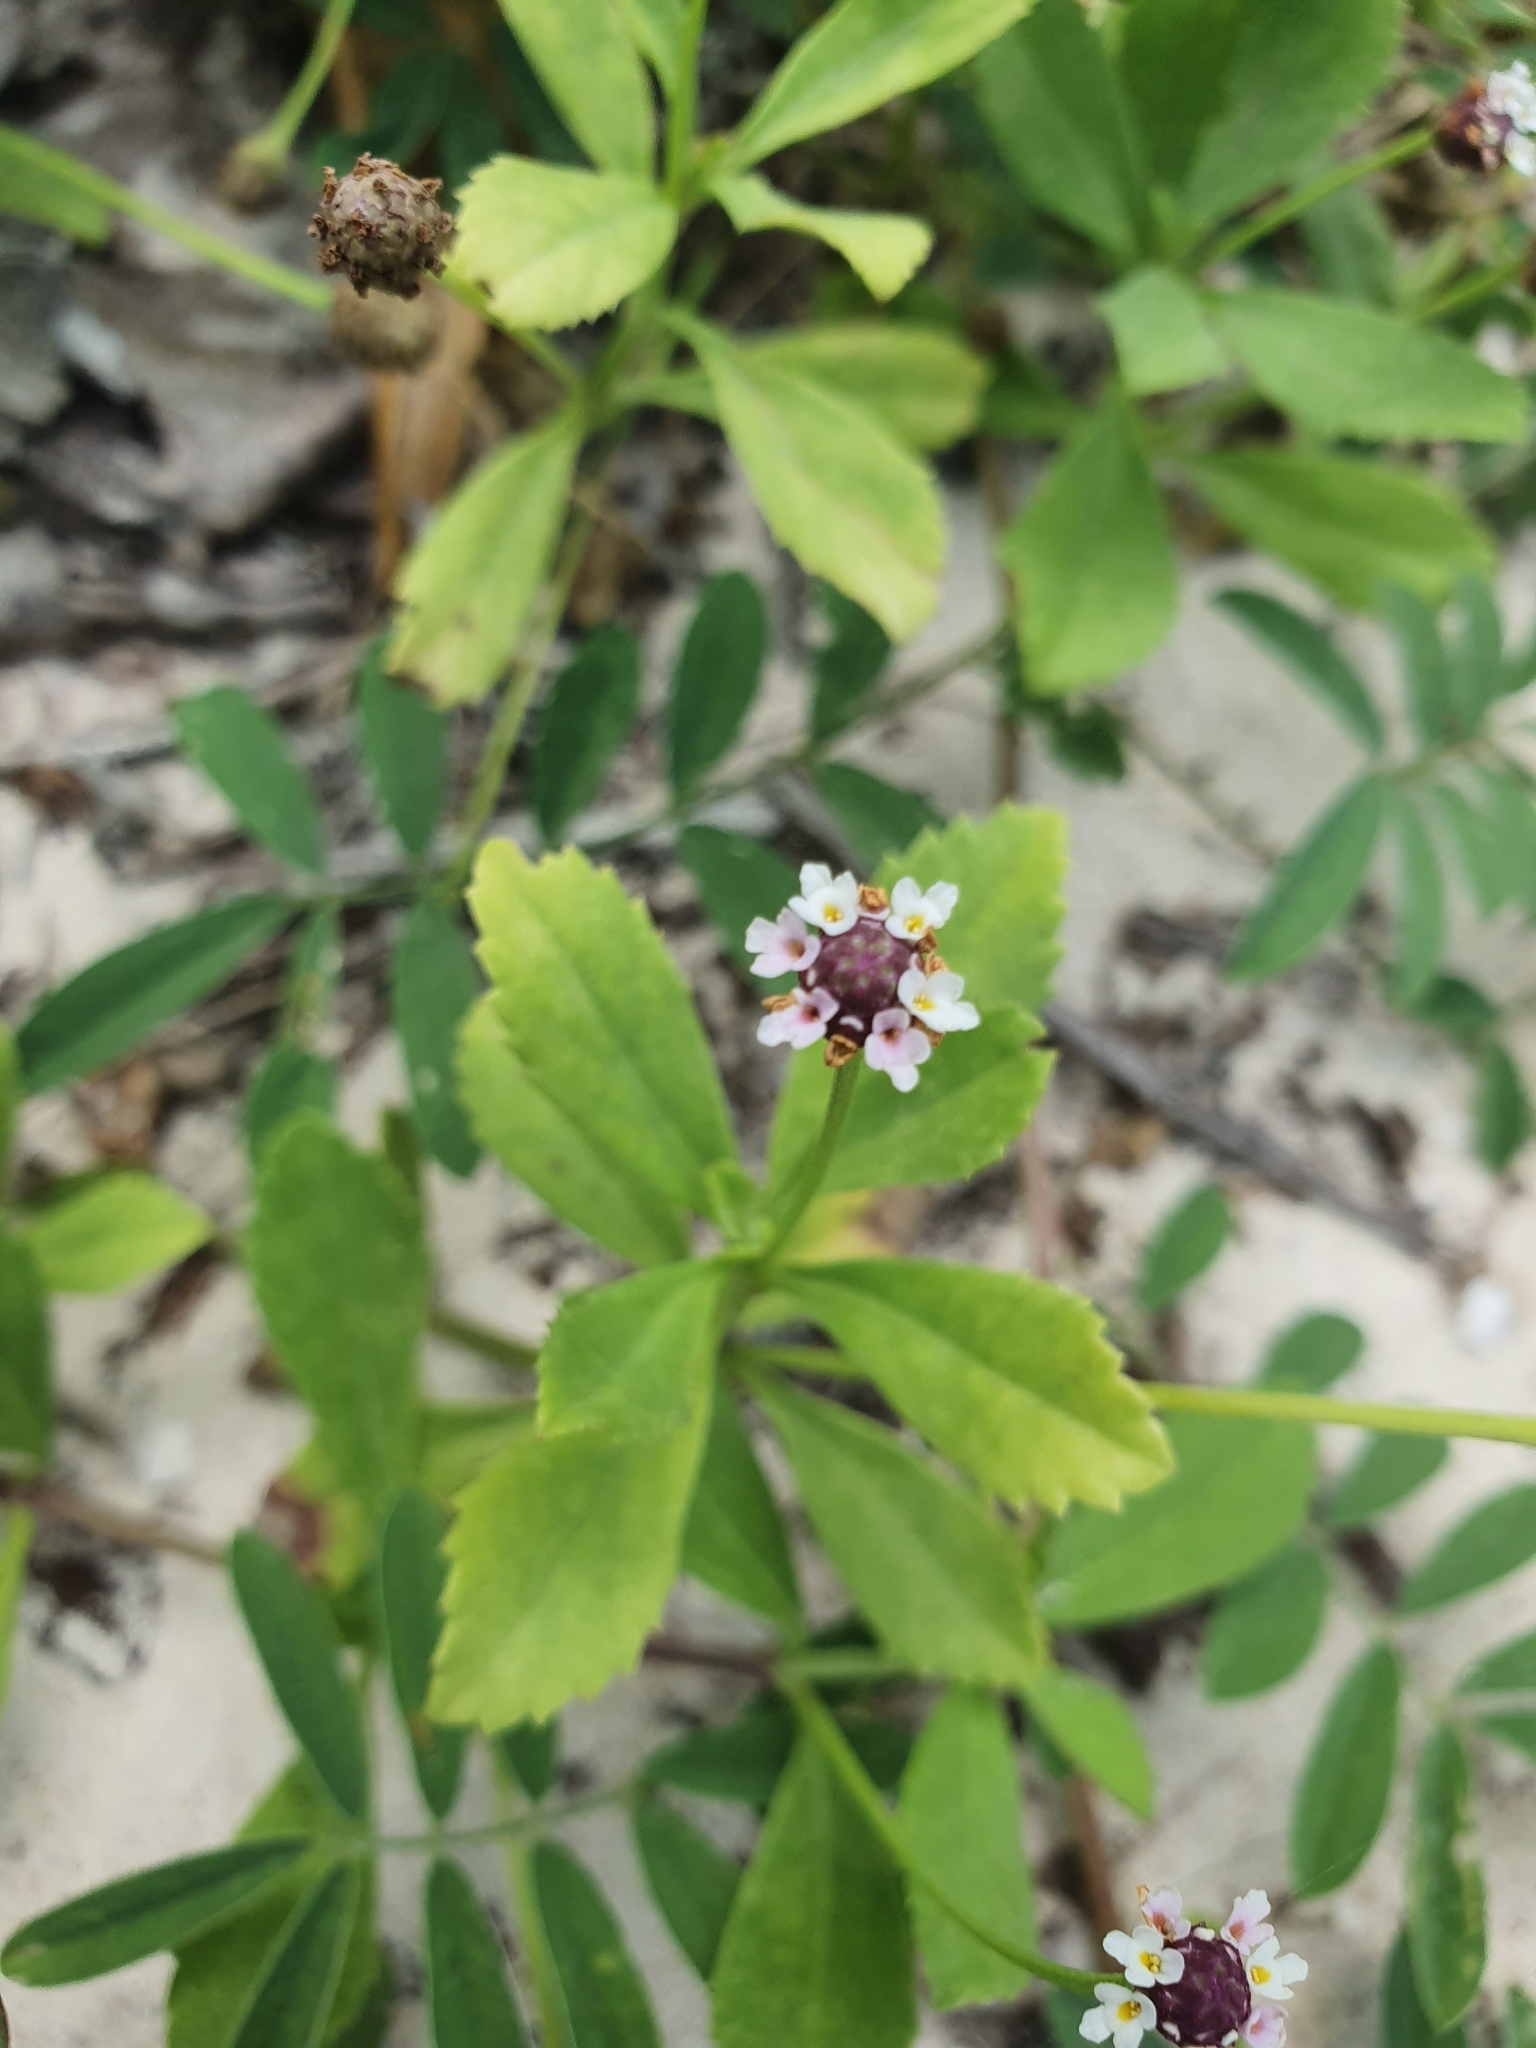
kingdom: Plantae
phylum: Tracheophyta
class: Magnoliopsida
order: Lamiales
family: Verbenaceae
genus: Phyla
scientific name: Phyla nodiflora
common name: Frogfruit
